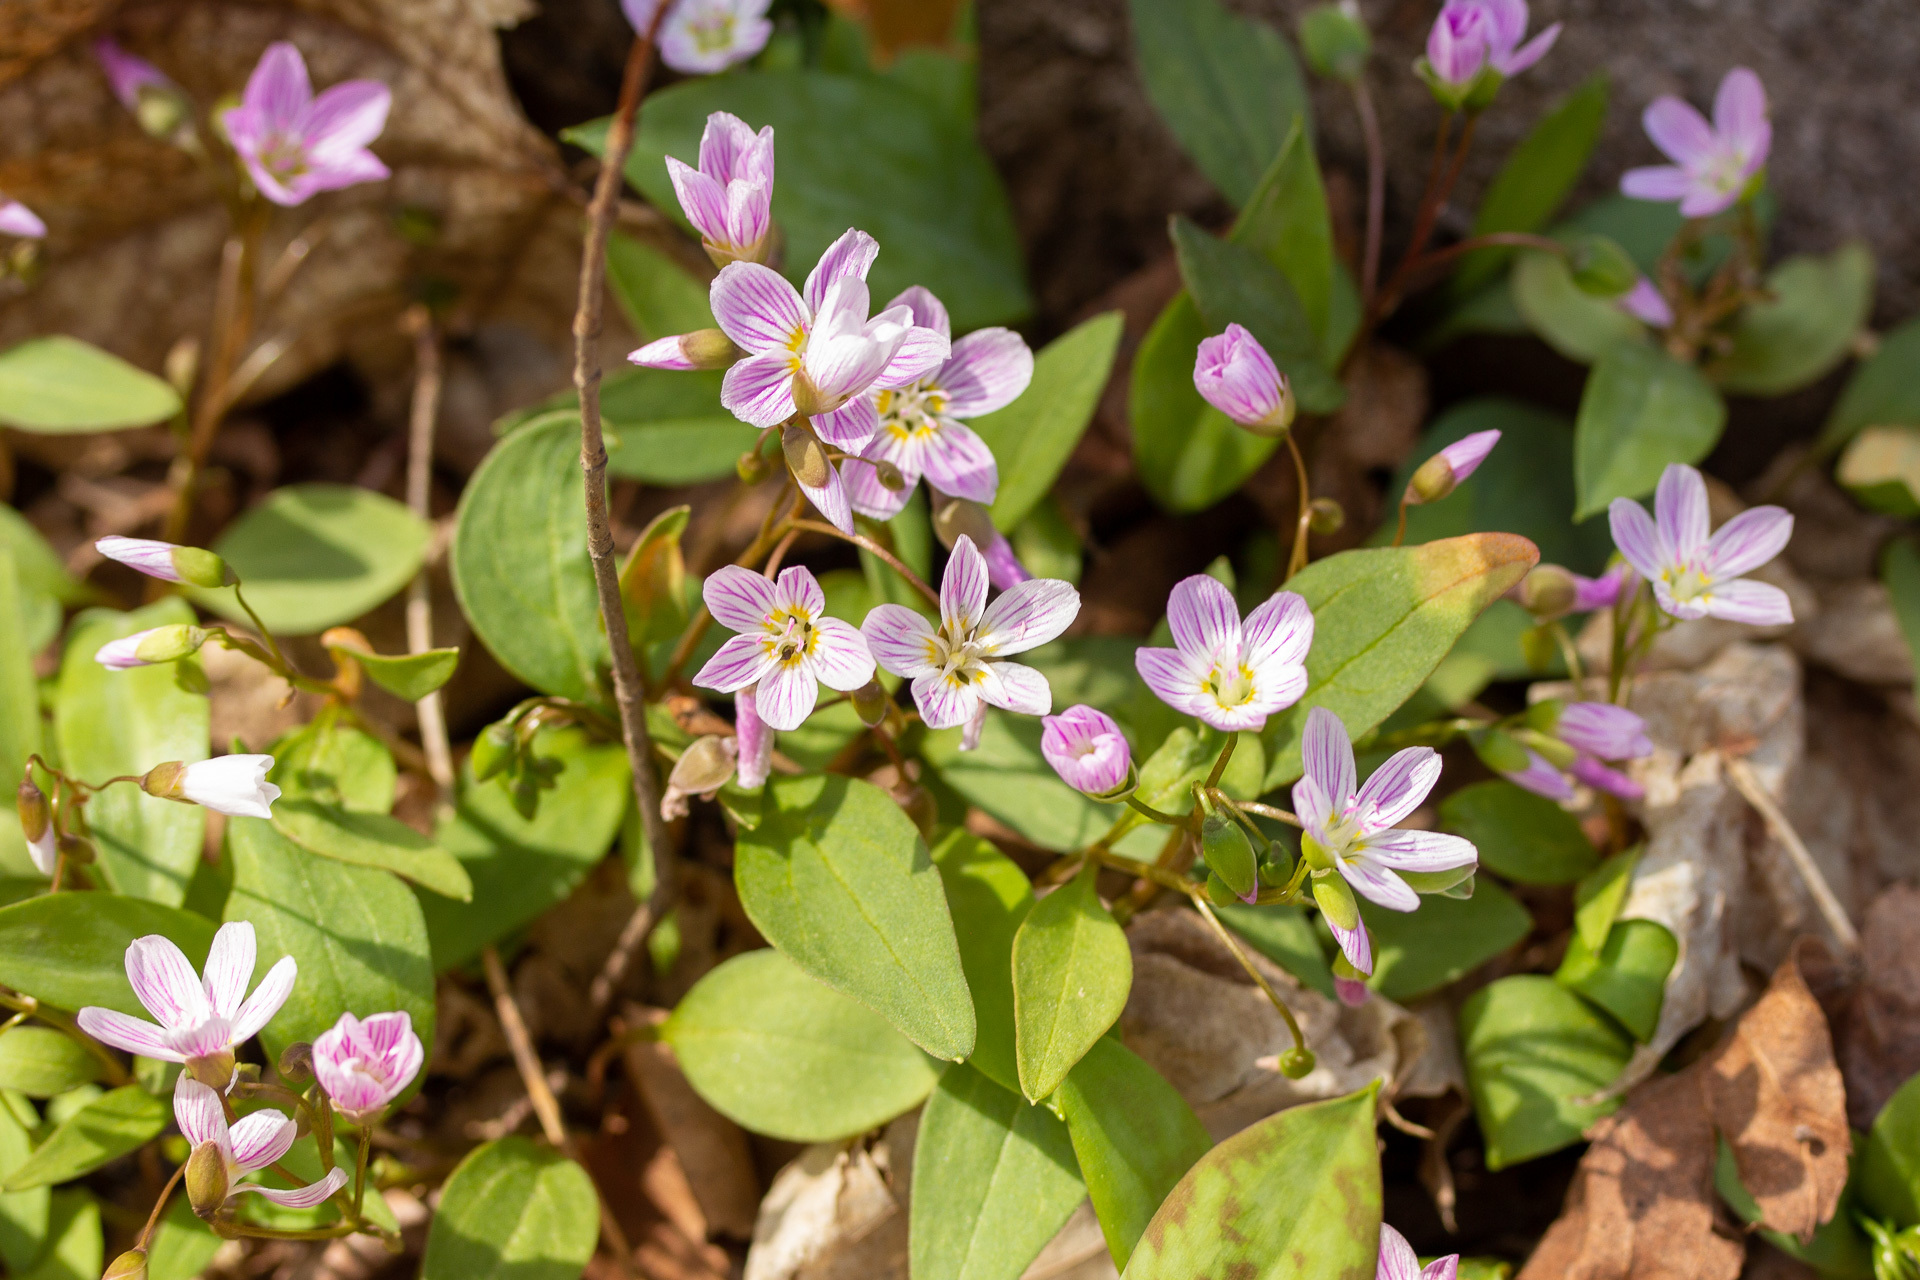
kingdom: Plantae
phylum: Tracheophyta
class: Magnoliopsida
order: Caryophyllales
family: Montiaceae
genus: Claytonia
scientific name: Claytonia caroliniana
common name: Carolina spring beauty
